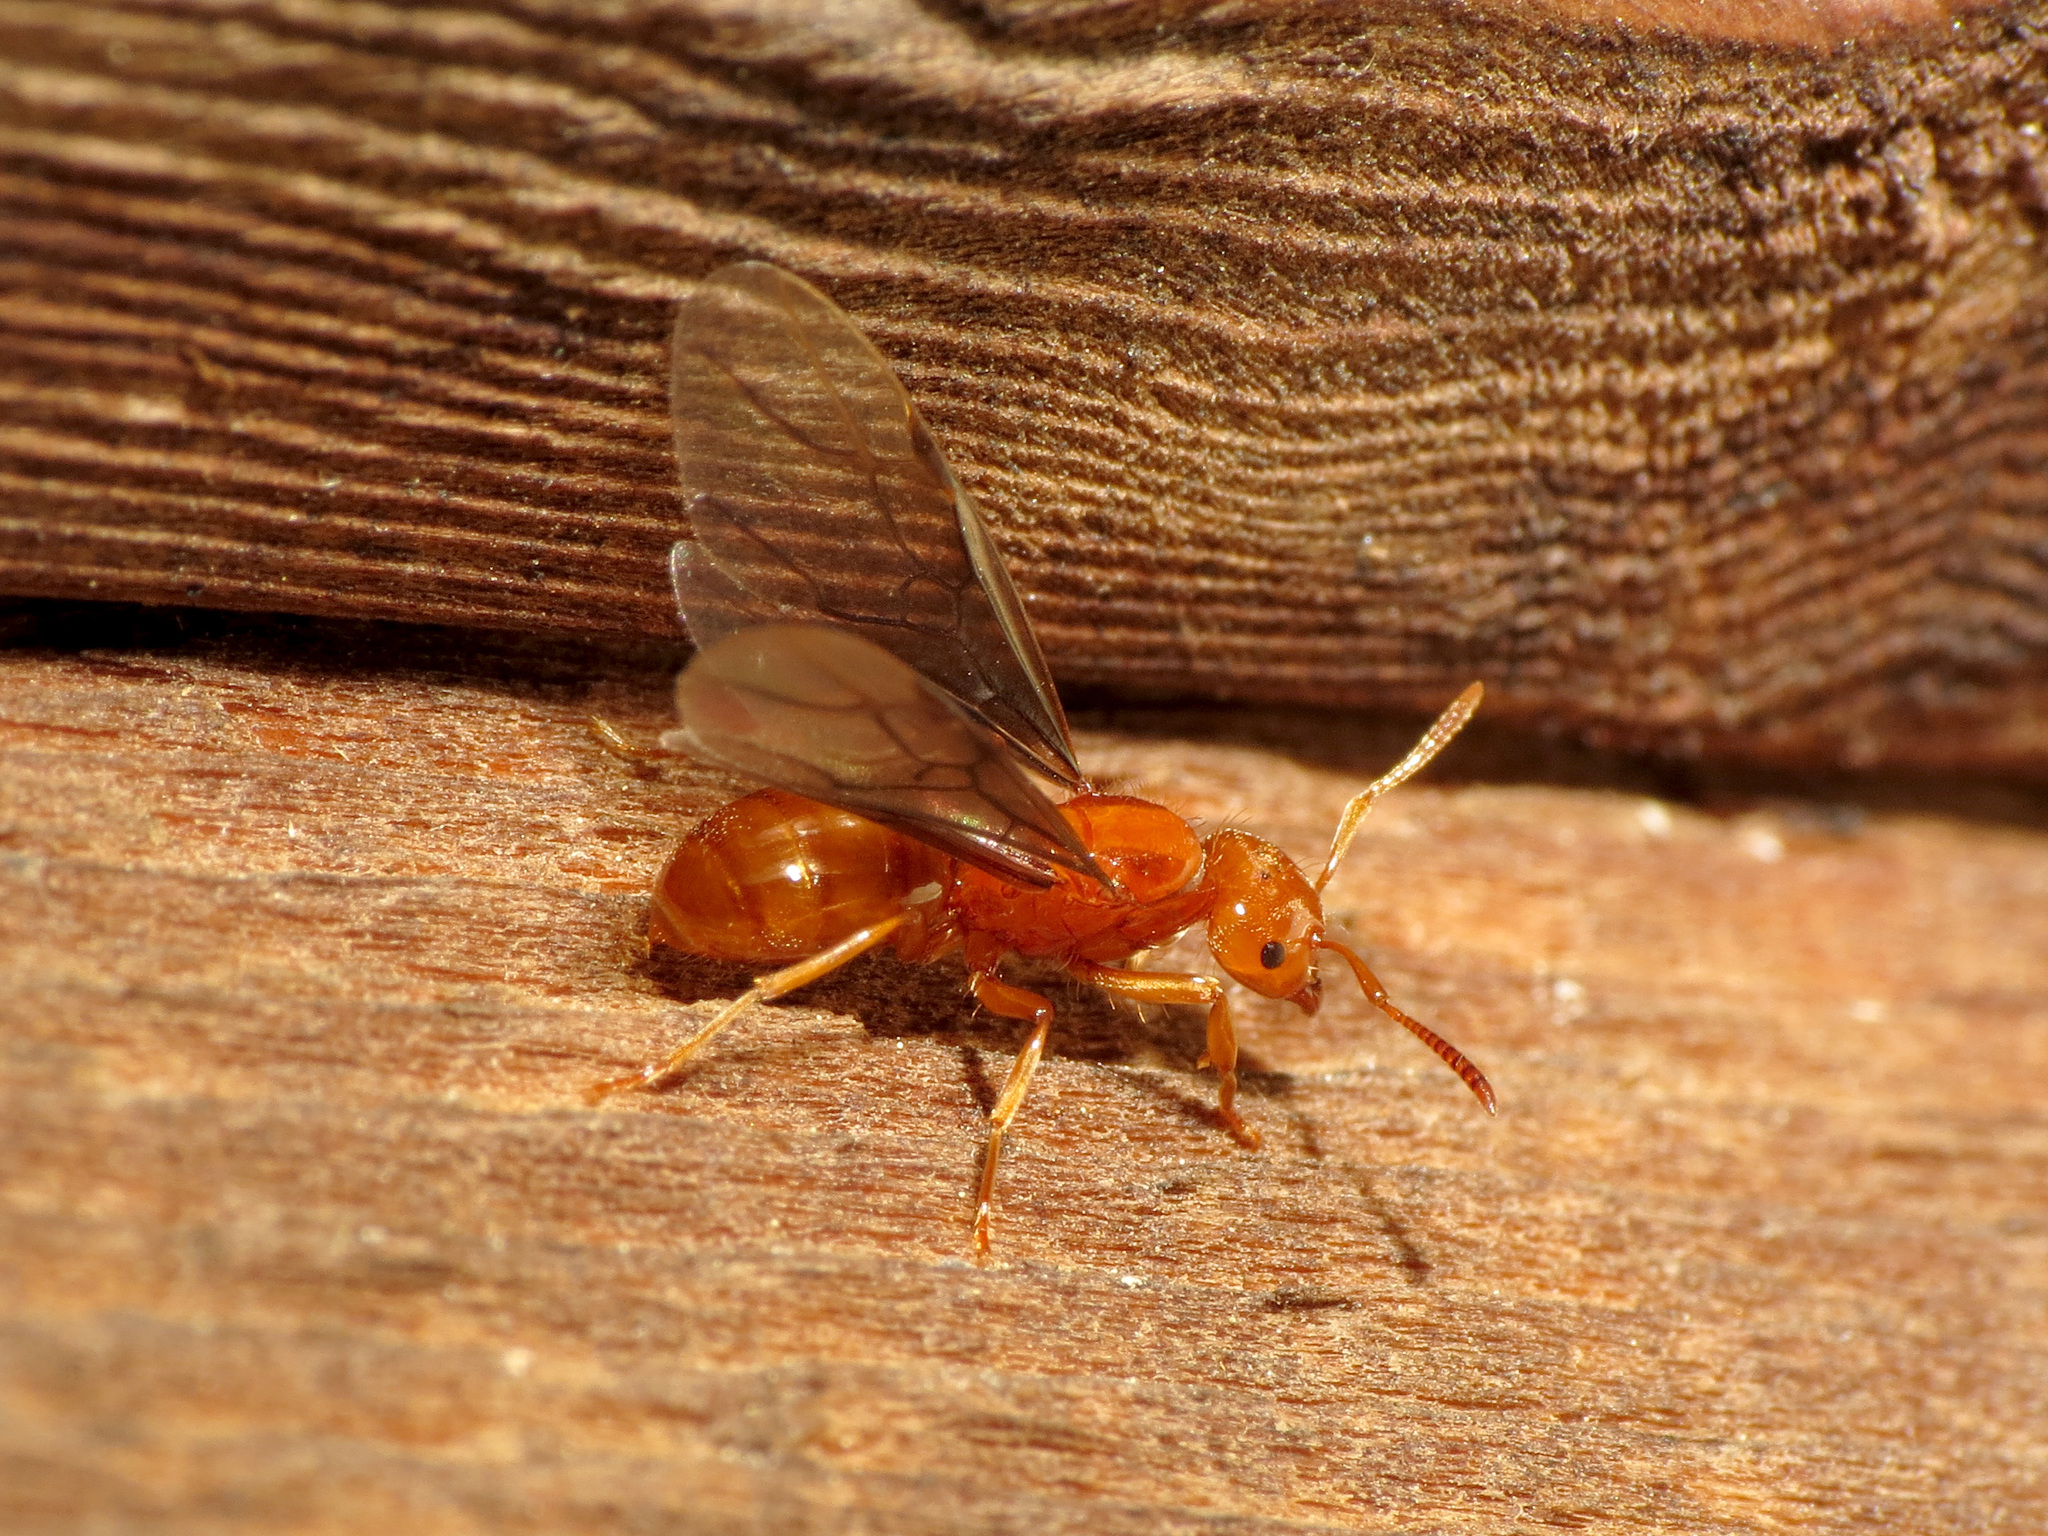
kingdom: Animalia
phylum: Arthropoda
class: Insecta
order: Hymenoptera
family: Formicidae
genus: Acanthomyops
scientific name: Acanthomyops interjectus
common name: Larger yellow ant
